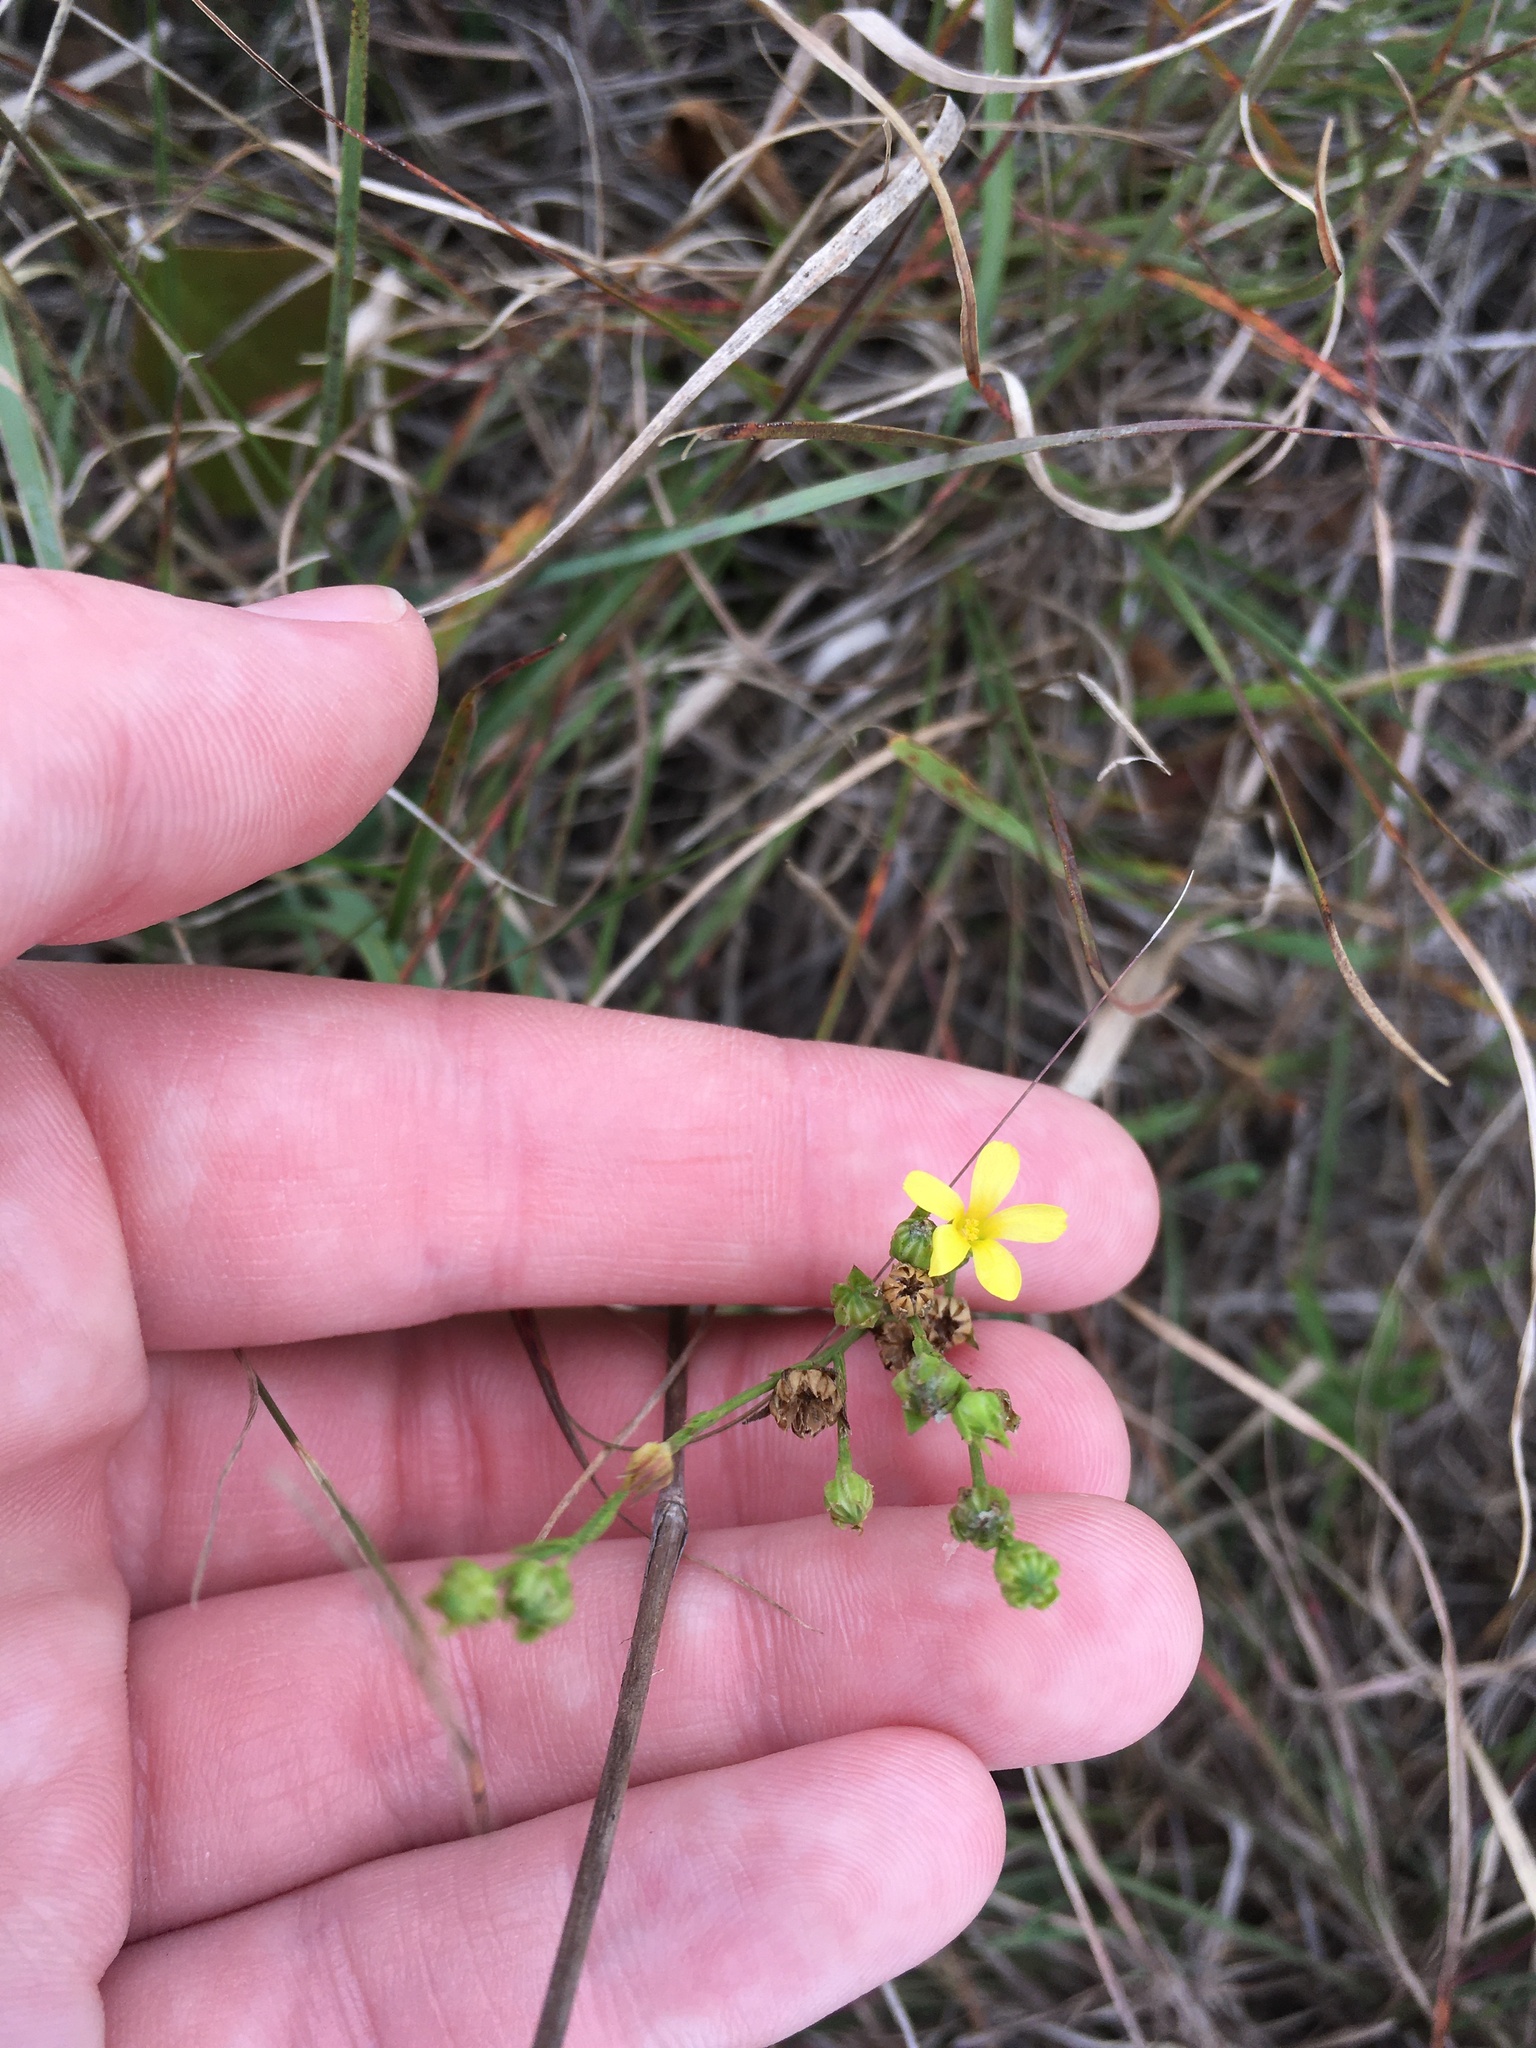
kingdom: Plantae
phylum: Tracheophyta
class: Magnoliopsida
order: Malpighiales
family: Linaceae
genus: Linum
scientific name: Linum sulcatum
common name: Grooved flax
